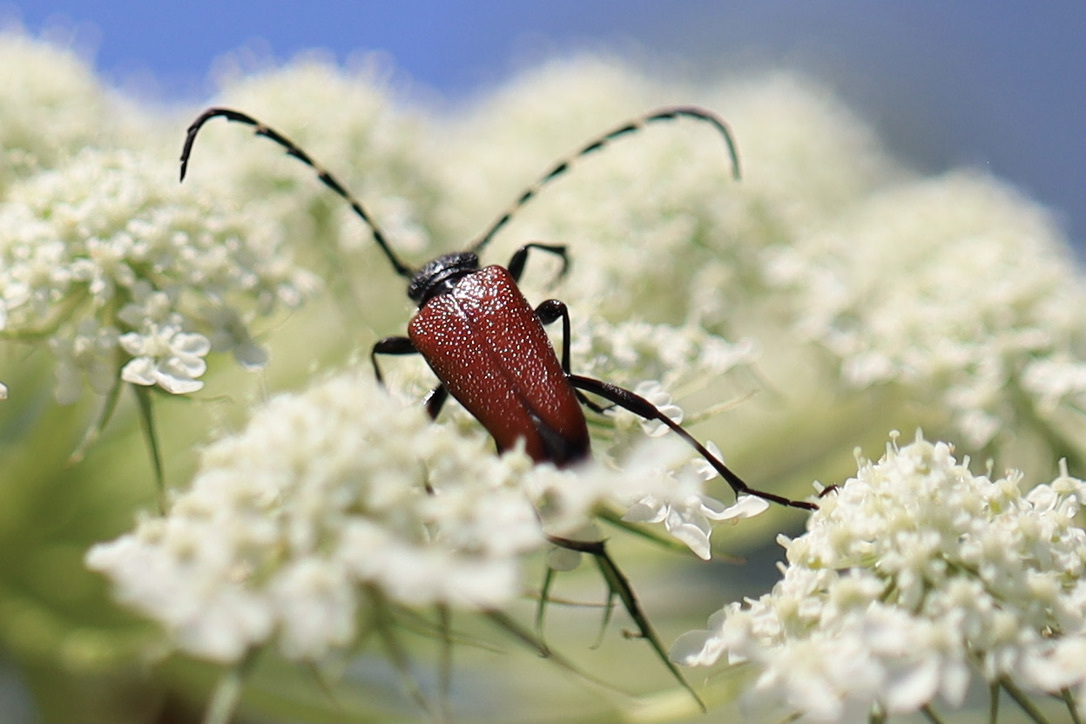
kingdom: Animalia
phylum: Arthropoda
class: Insecta
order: Coleoptera
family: Cerambycidae
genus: Stictoleptura
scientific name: Stictoleptura canadensis
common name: Red-shouldered pine borer
